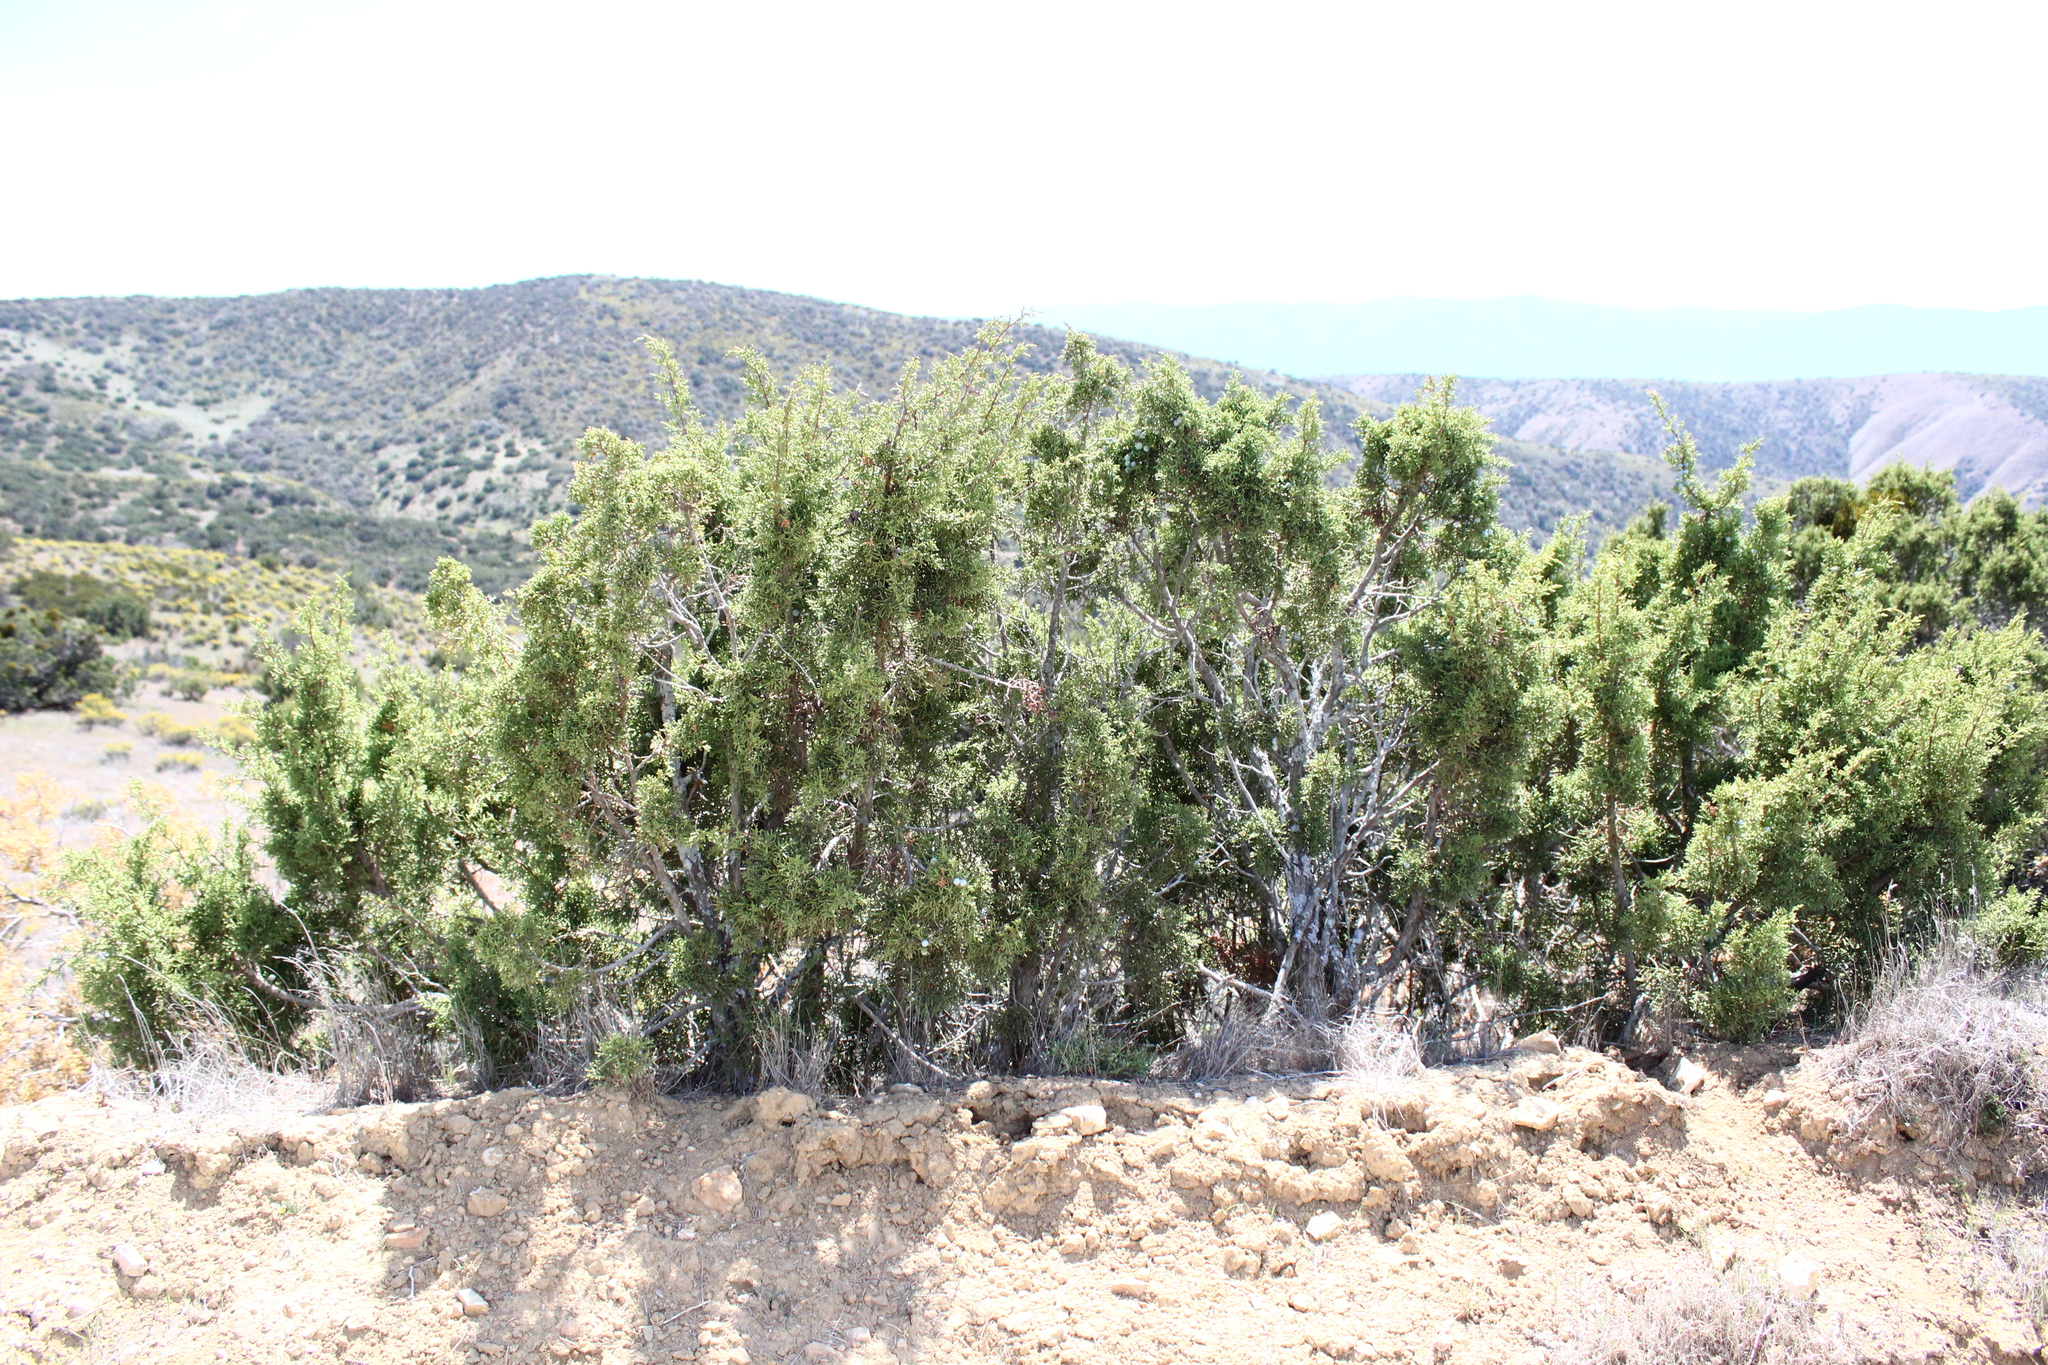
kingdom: Plantae
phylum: Tracheophyta
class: Pinopsida
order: Pinales
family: Cupressaceae
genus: Juniperus
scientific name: Juniperus californica
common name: California juniper
